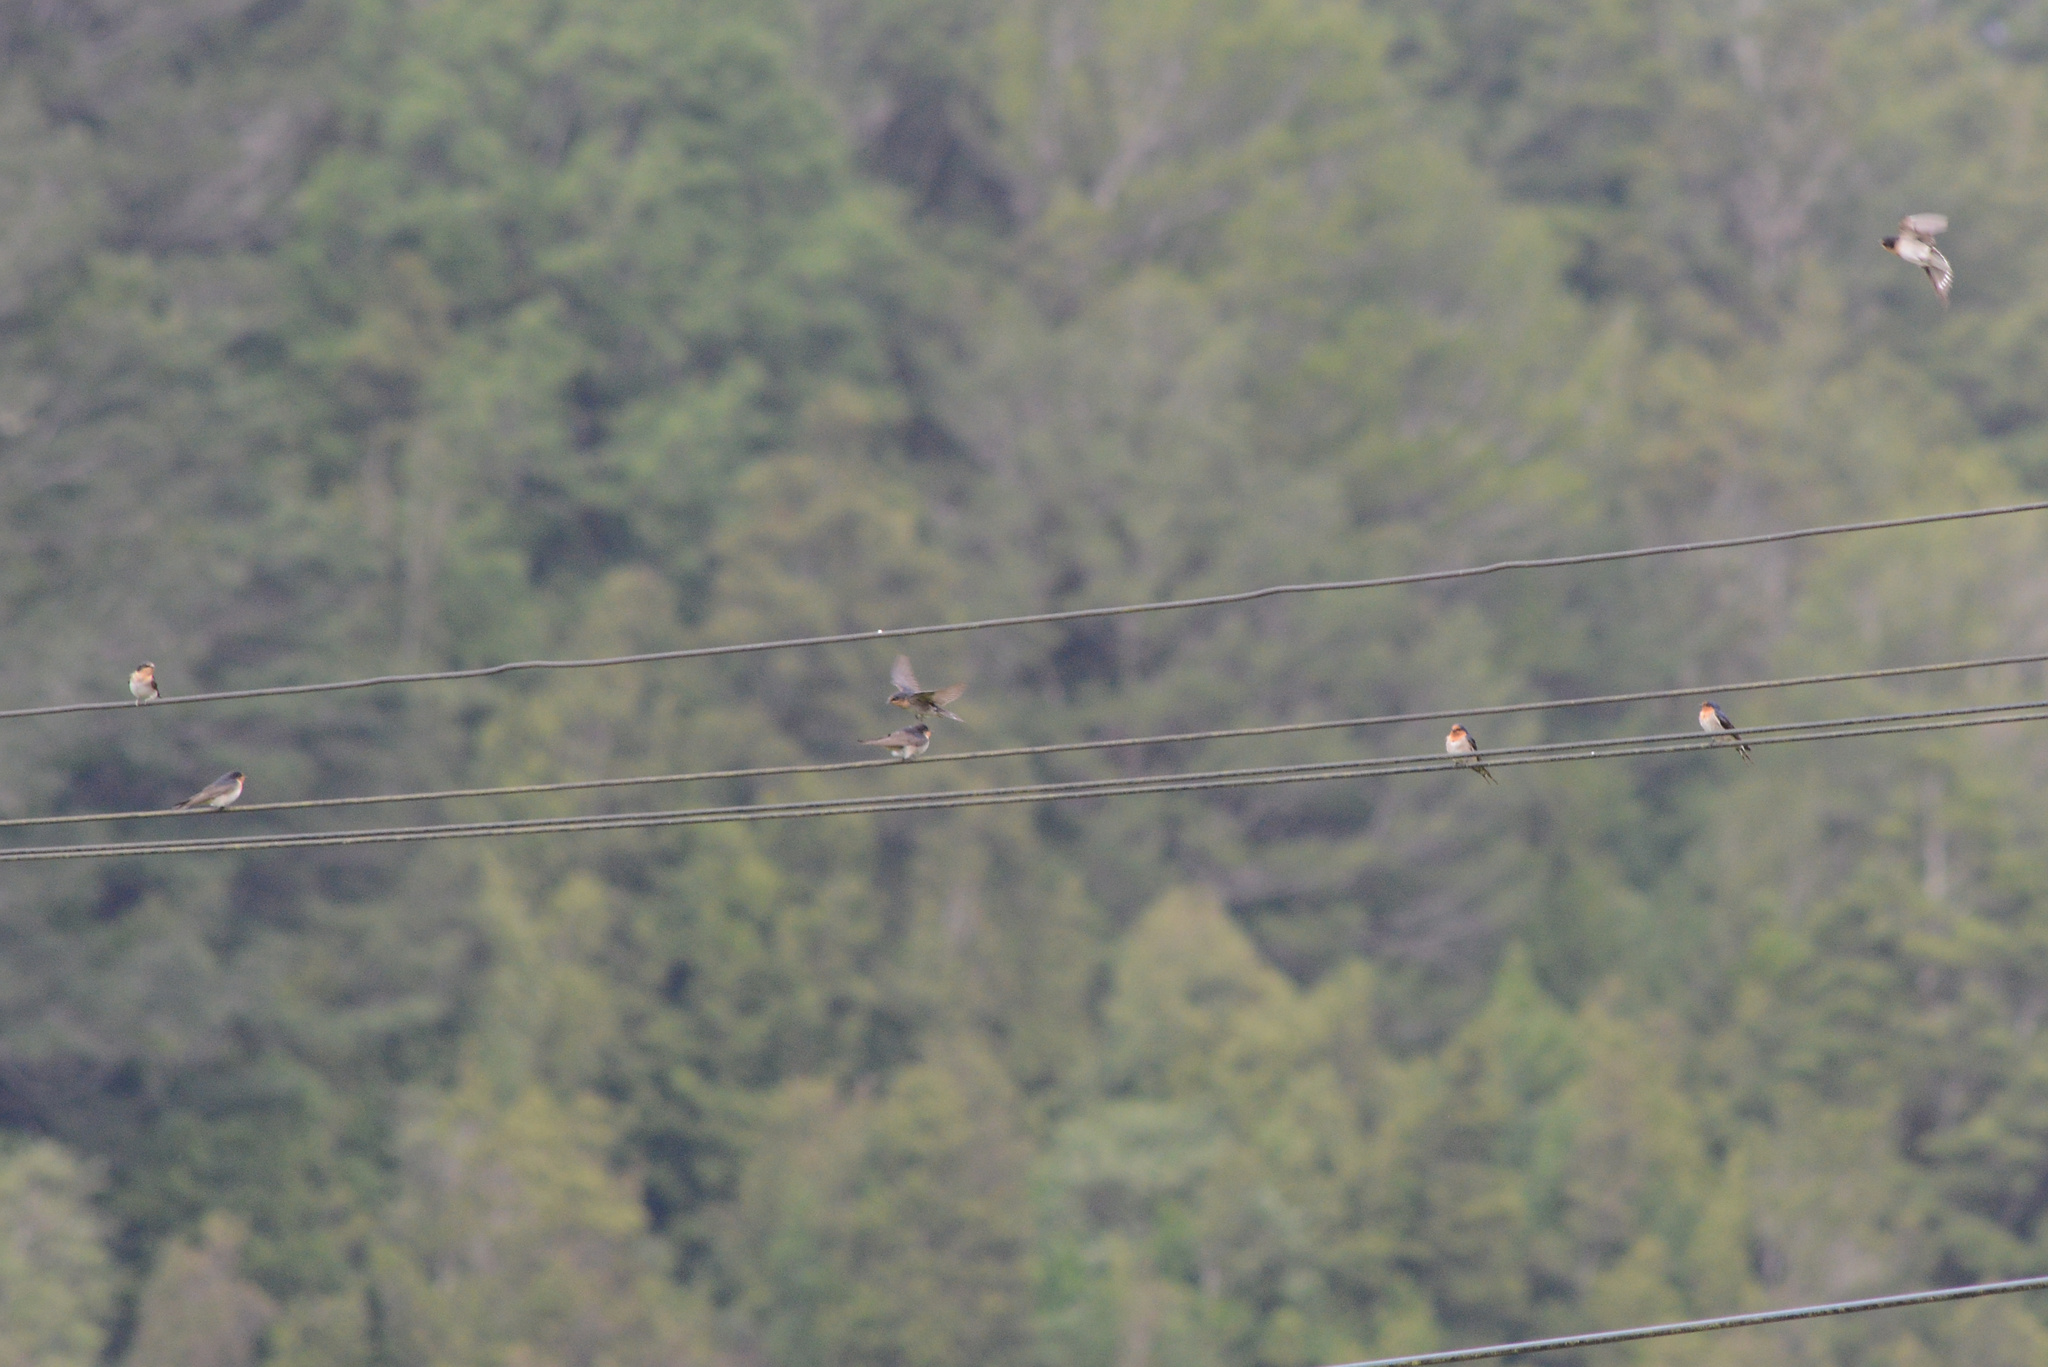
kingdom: Animalia
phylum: Chordata
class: Aves
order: Passeriformes
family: Hirundinidae
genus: Hirundo
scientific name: Hirundo neoxena
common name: Welcome swallow
